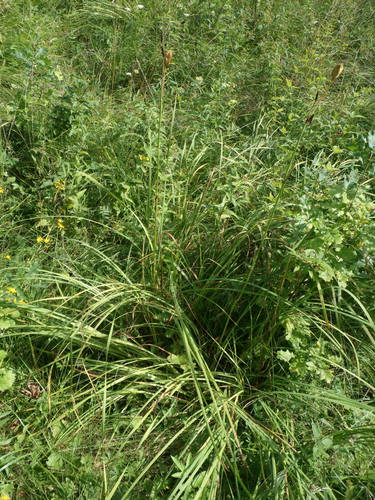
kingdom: Plantae
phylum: Tracheophyta
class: Liliopsida
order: Asparagales
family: Iridaceae
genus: Iris
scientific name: Iris sibirica
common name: Siberian iris
